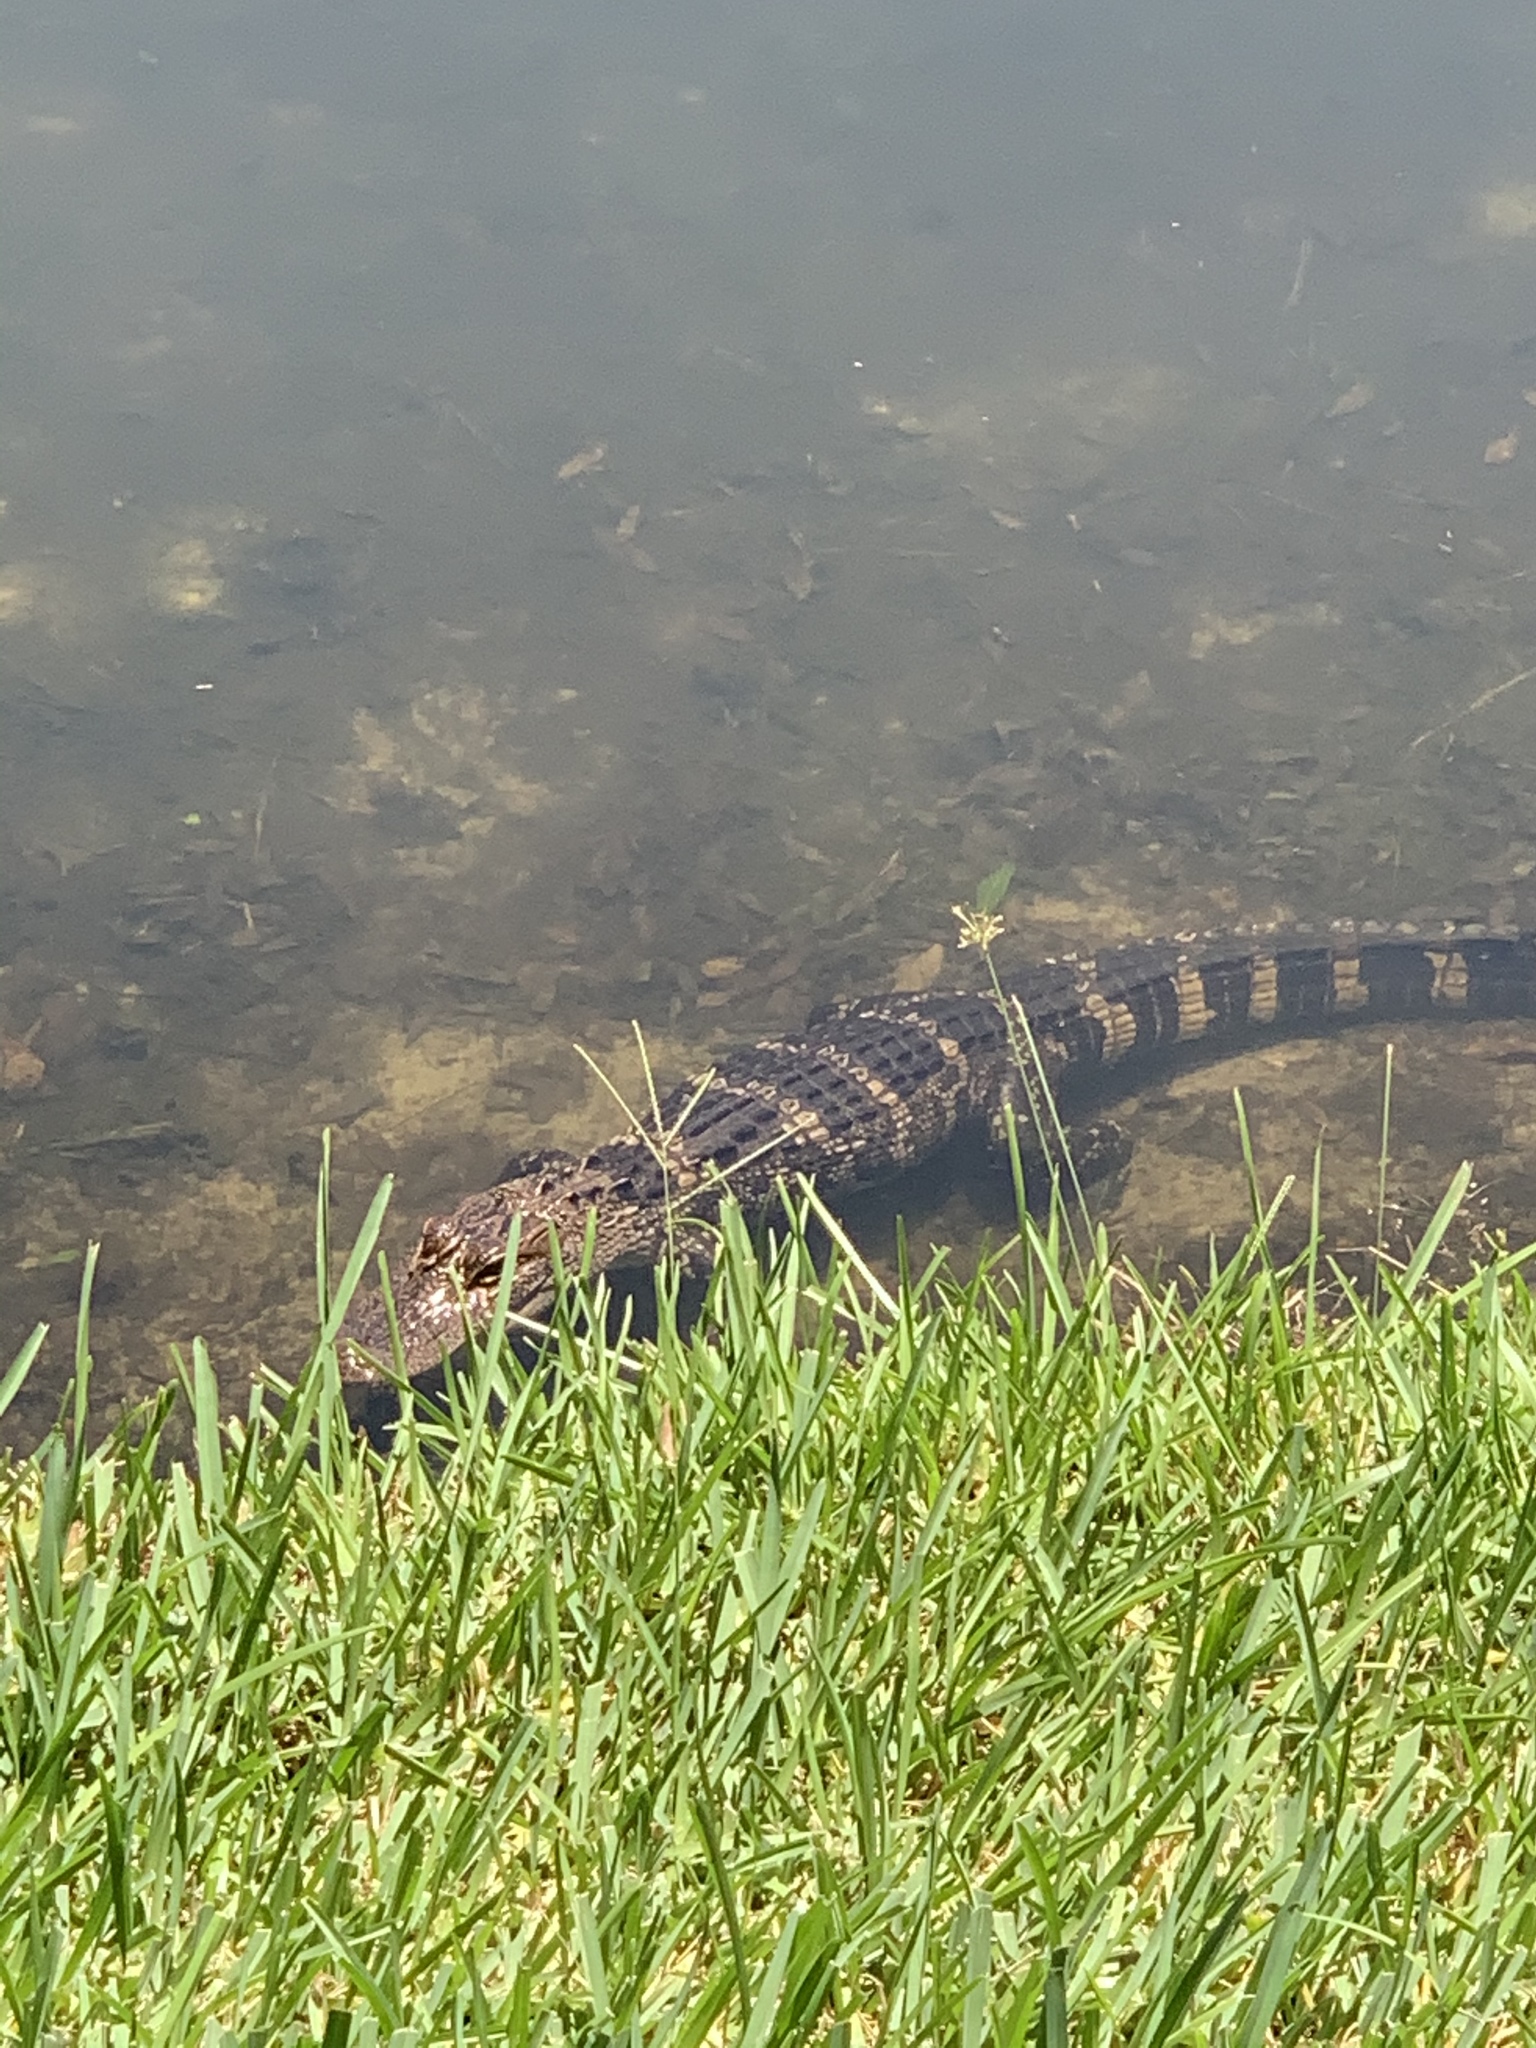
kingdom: Animalia
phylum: Chordata
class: Crocodylia
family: Alligatoridae
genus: Alligator
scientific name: Alligator mississippiensis
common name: American alligator
